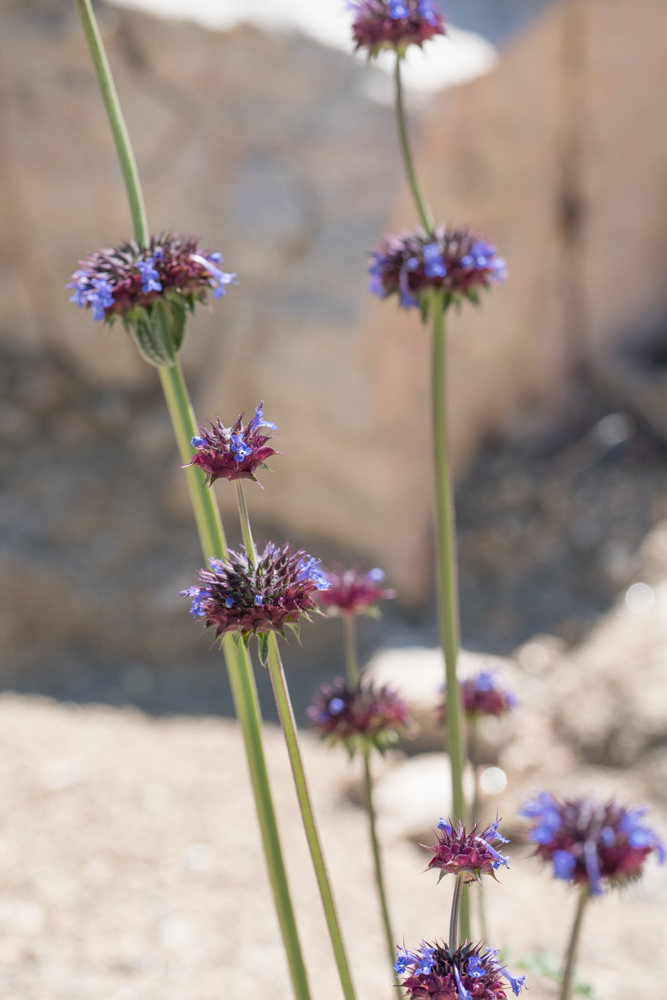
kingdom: Plantae
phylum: Tracheophyta
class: Magnoliopsida
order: Lamiales
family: Lamiaceae
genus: Salvia
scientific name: Salvia columbariae
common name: Chia
